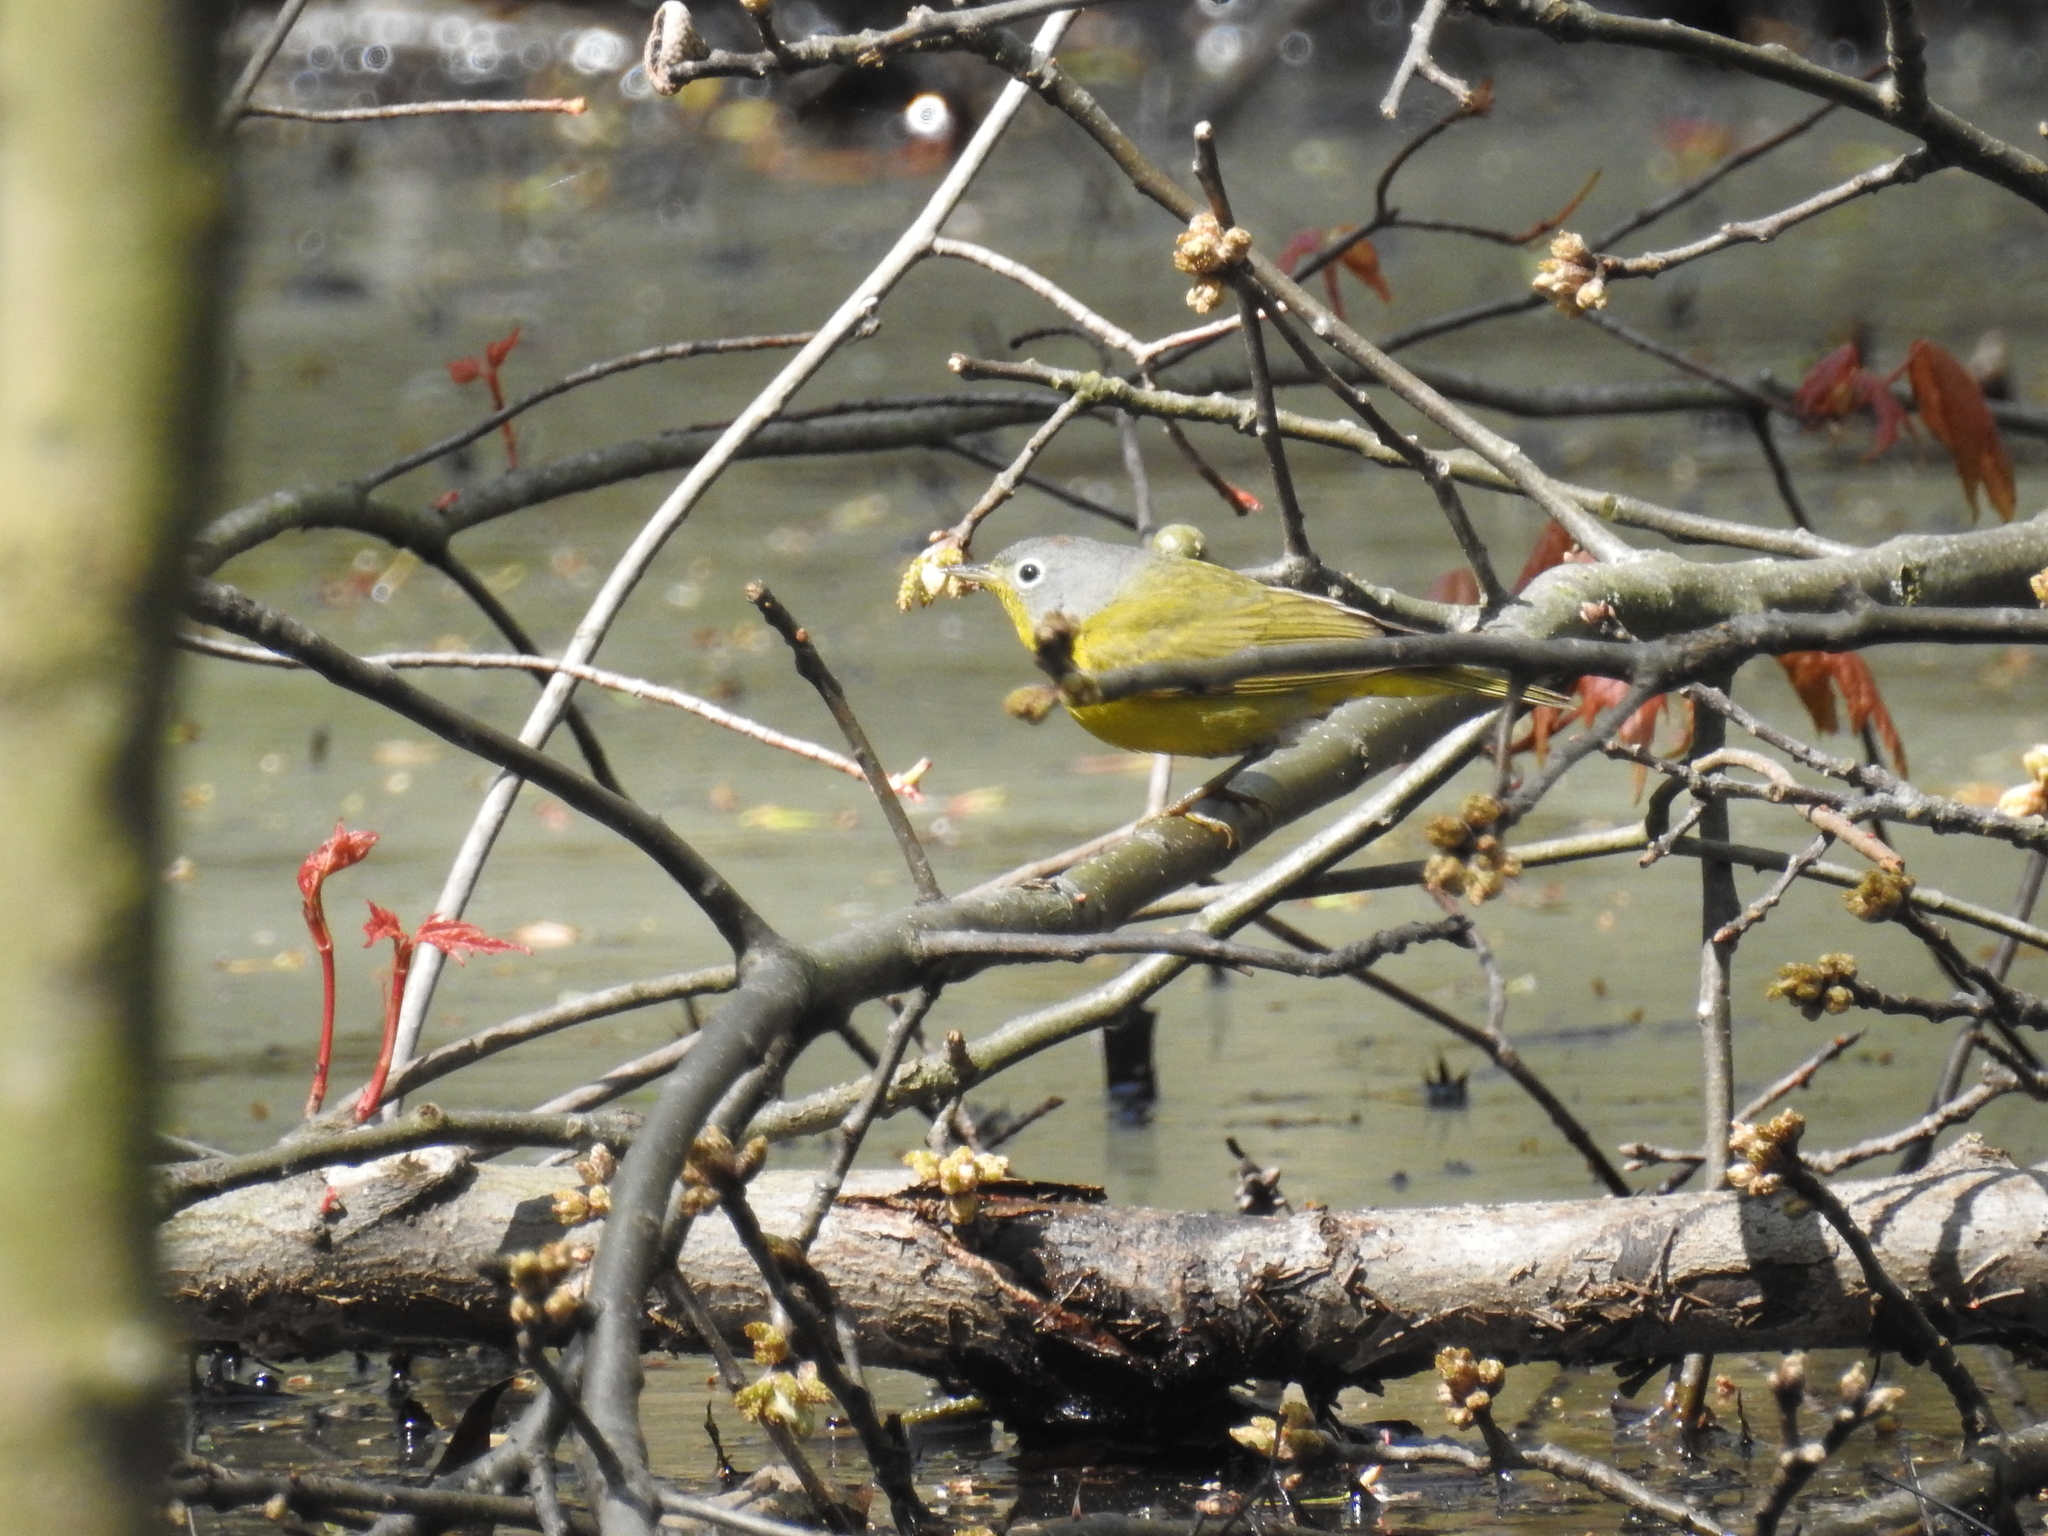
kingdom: Animalia
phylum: Chordata
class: Aves
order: Passeriformes
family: Parulidae
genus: Leiothlypis
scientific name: Leiothlypis ruficapilla
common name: Nashville warbler
